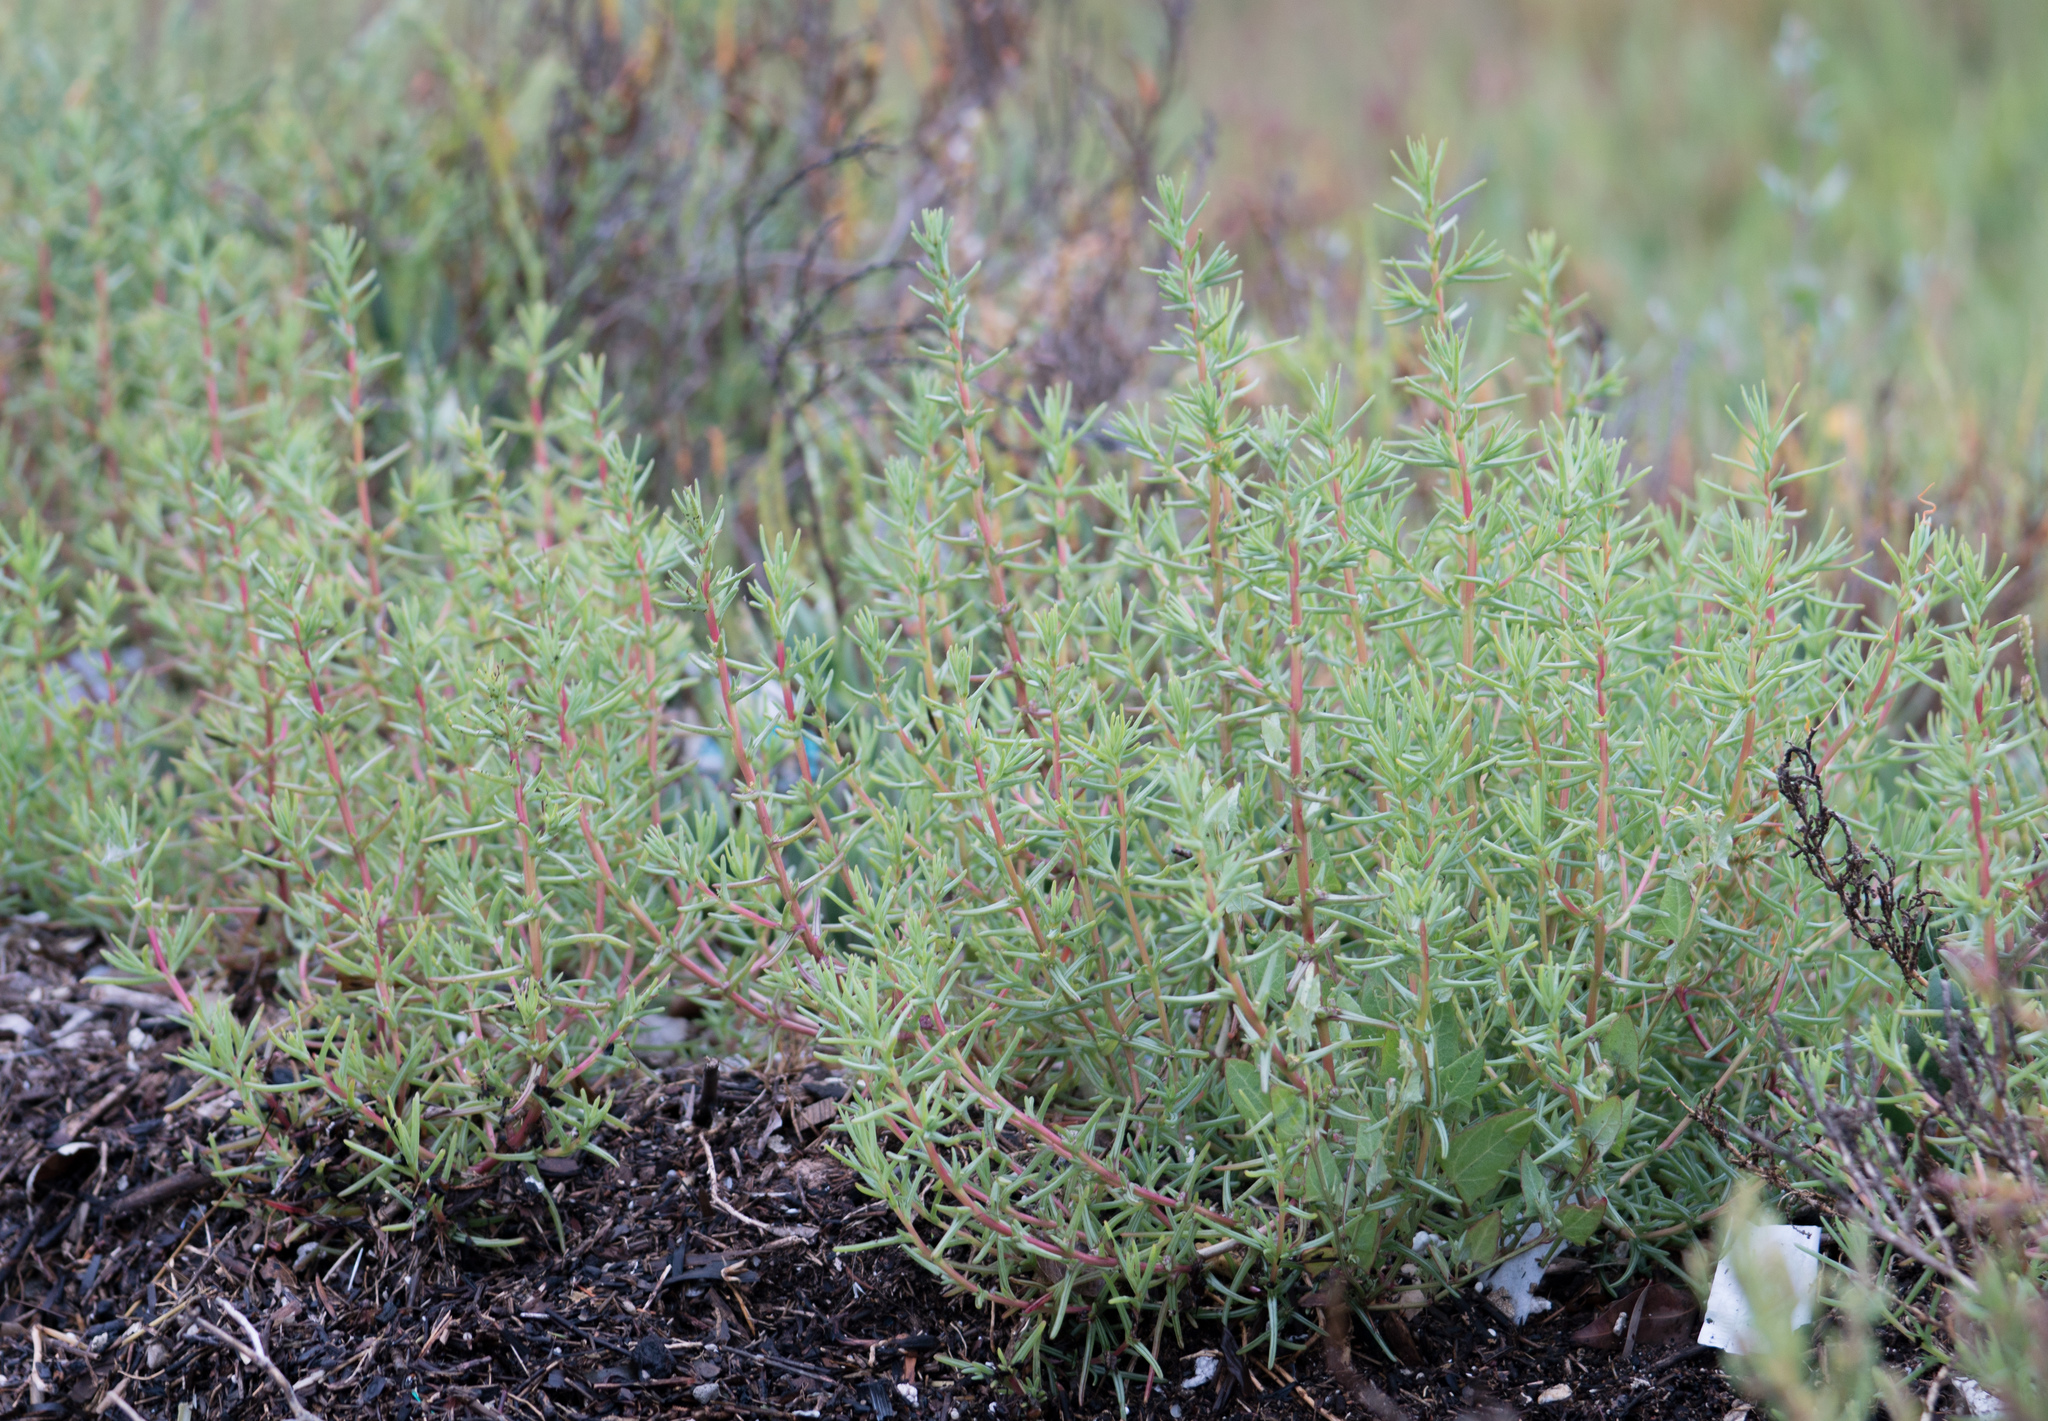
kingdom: Plantae
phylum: Tracheophyta
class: Magnoliopsida
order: Caryophyllales
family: Amaranthaceae
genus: Salsola
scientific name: Salsola soda
